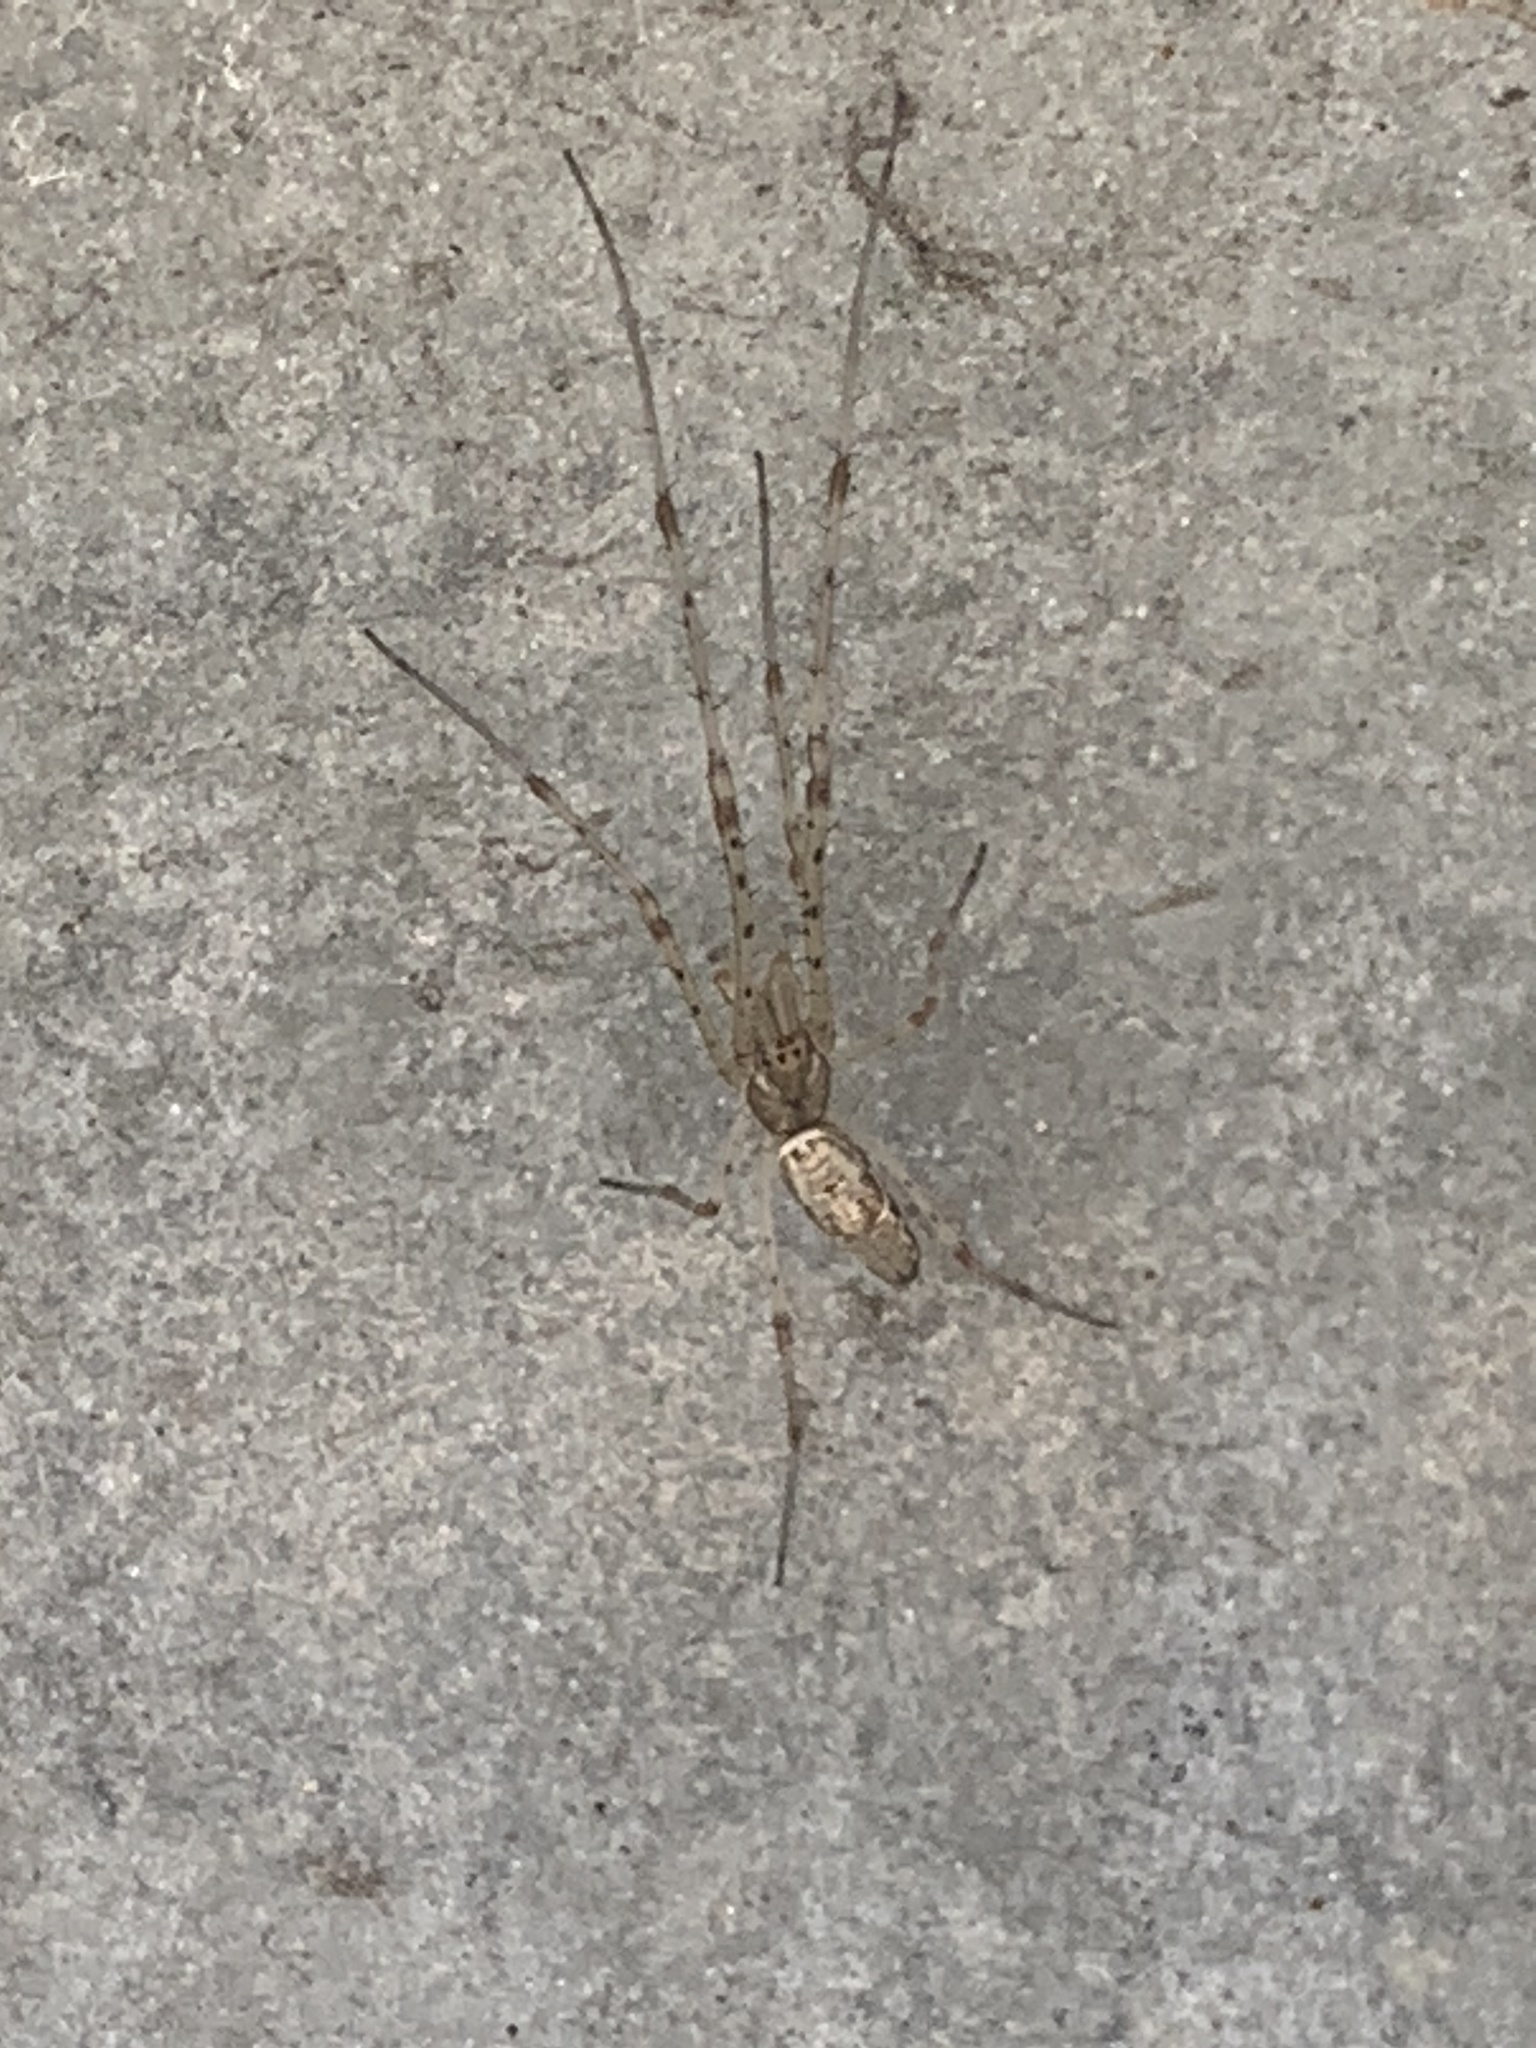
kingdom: Animalia
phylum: Arthropoda
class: Arachnida
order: Araneae
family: Tetragnathidae
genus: Tetragnatha
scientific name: Tetragnatha
